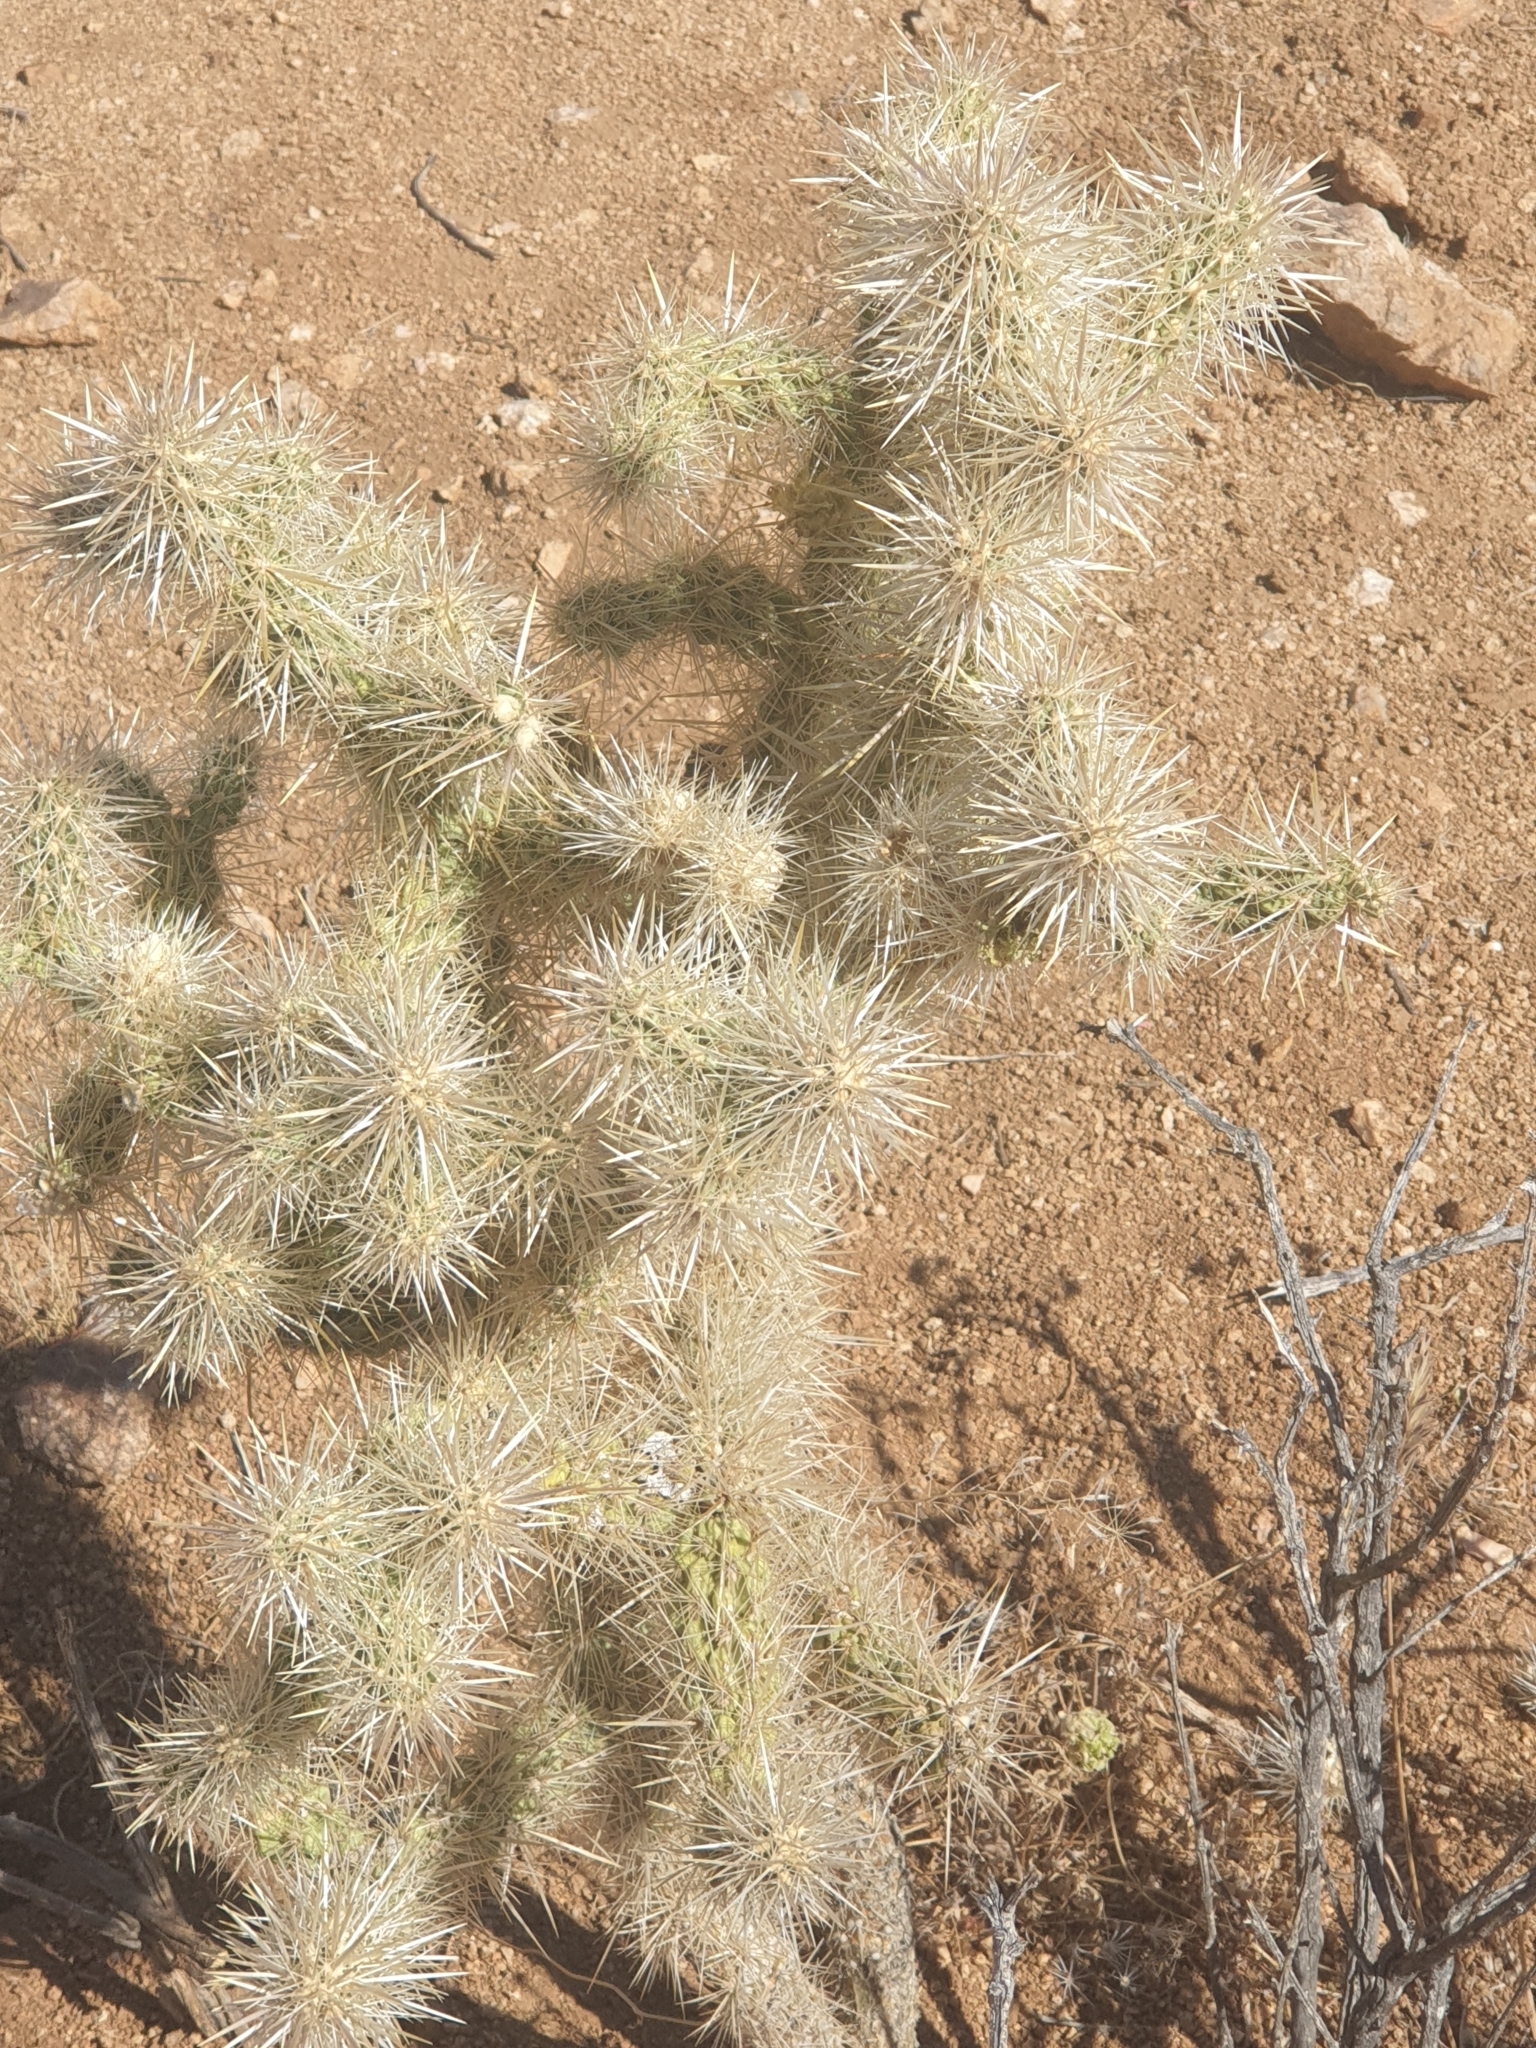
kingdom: Plantae
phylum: Tracheophyta
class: Magnoliopsida
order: Caryophyllales
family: Cactaceae
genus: Cylindropuntia
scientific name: Cylindropuntia echinocarpa
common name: Ground cholla
